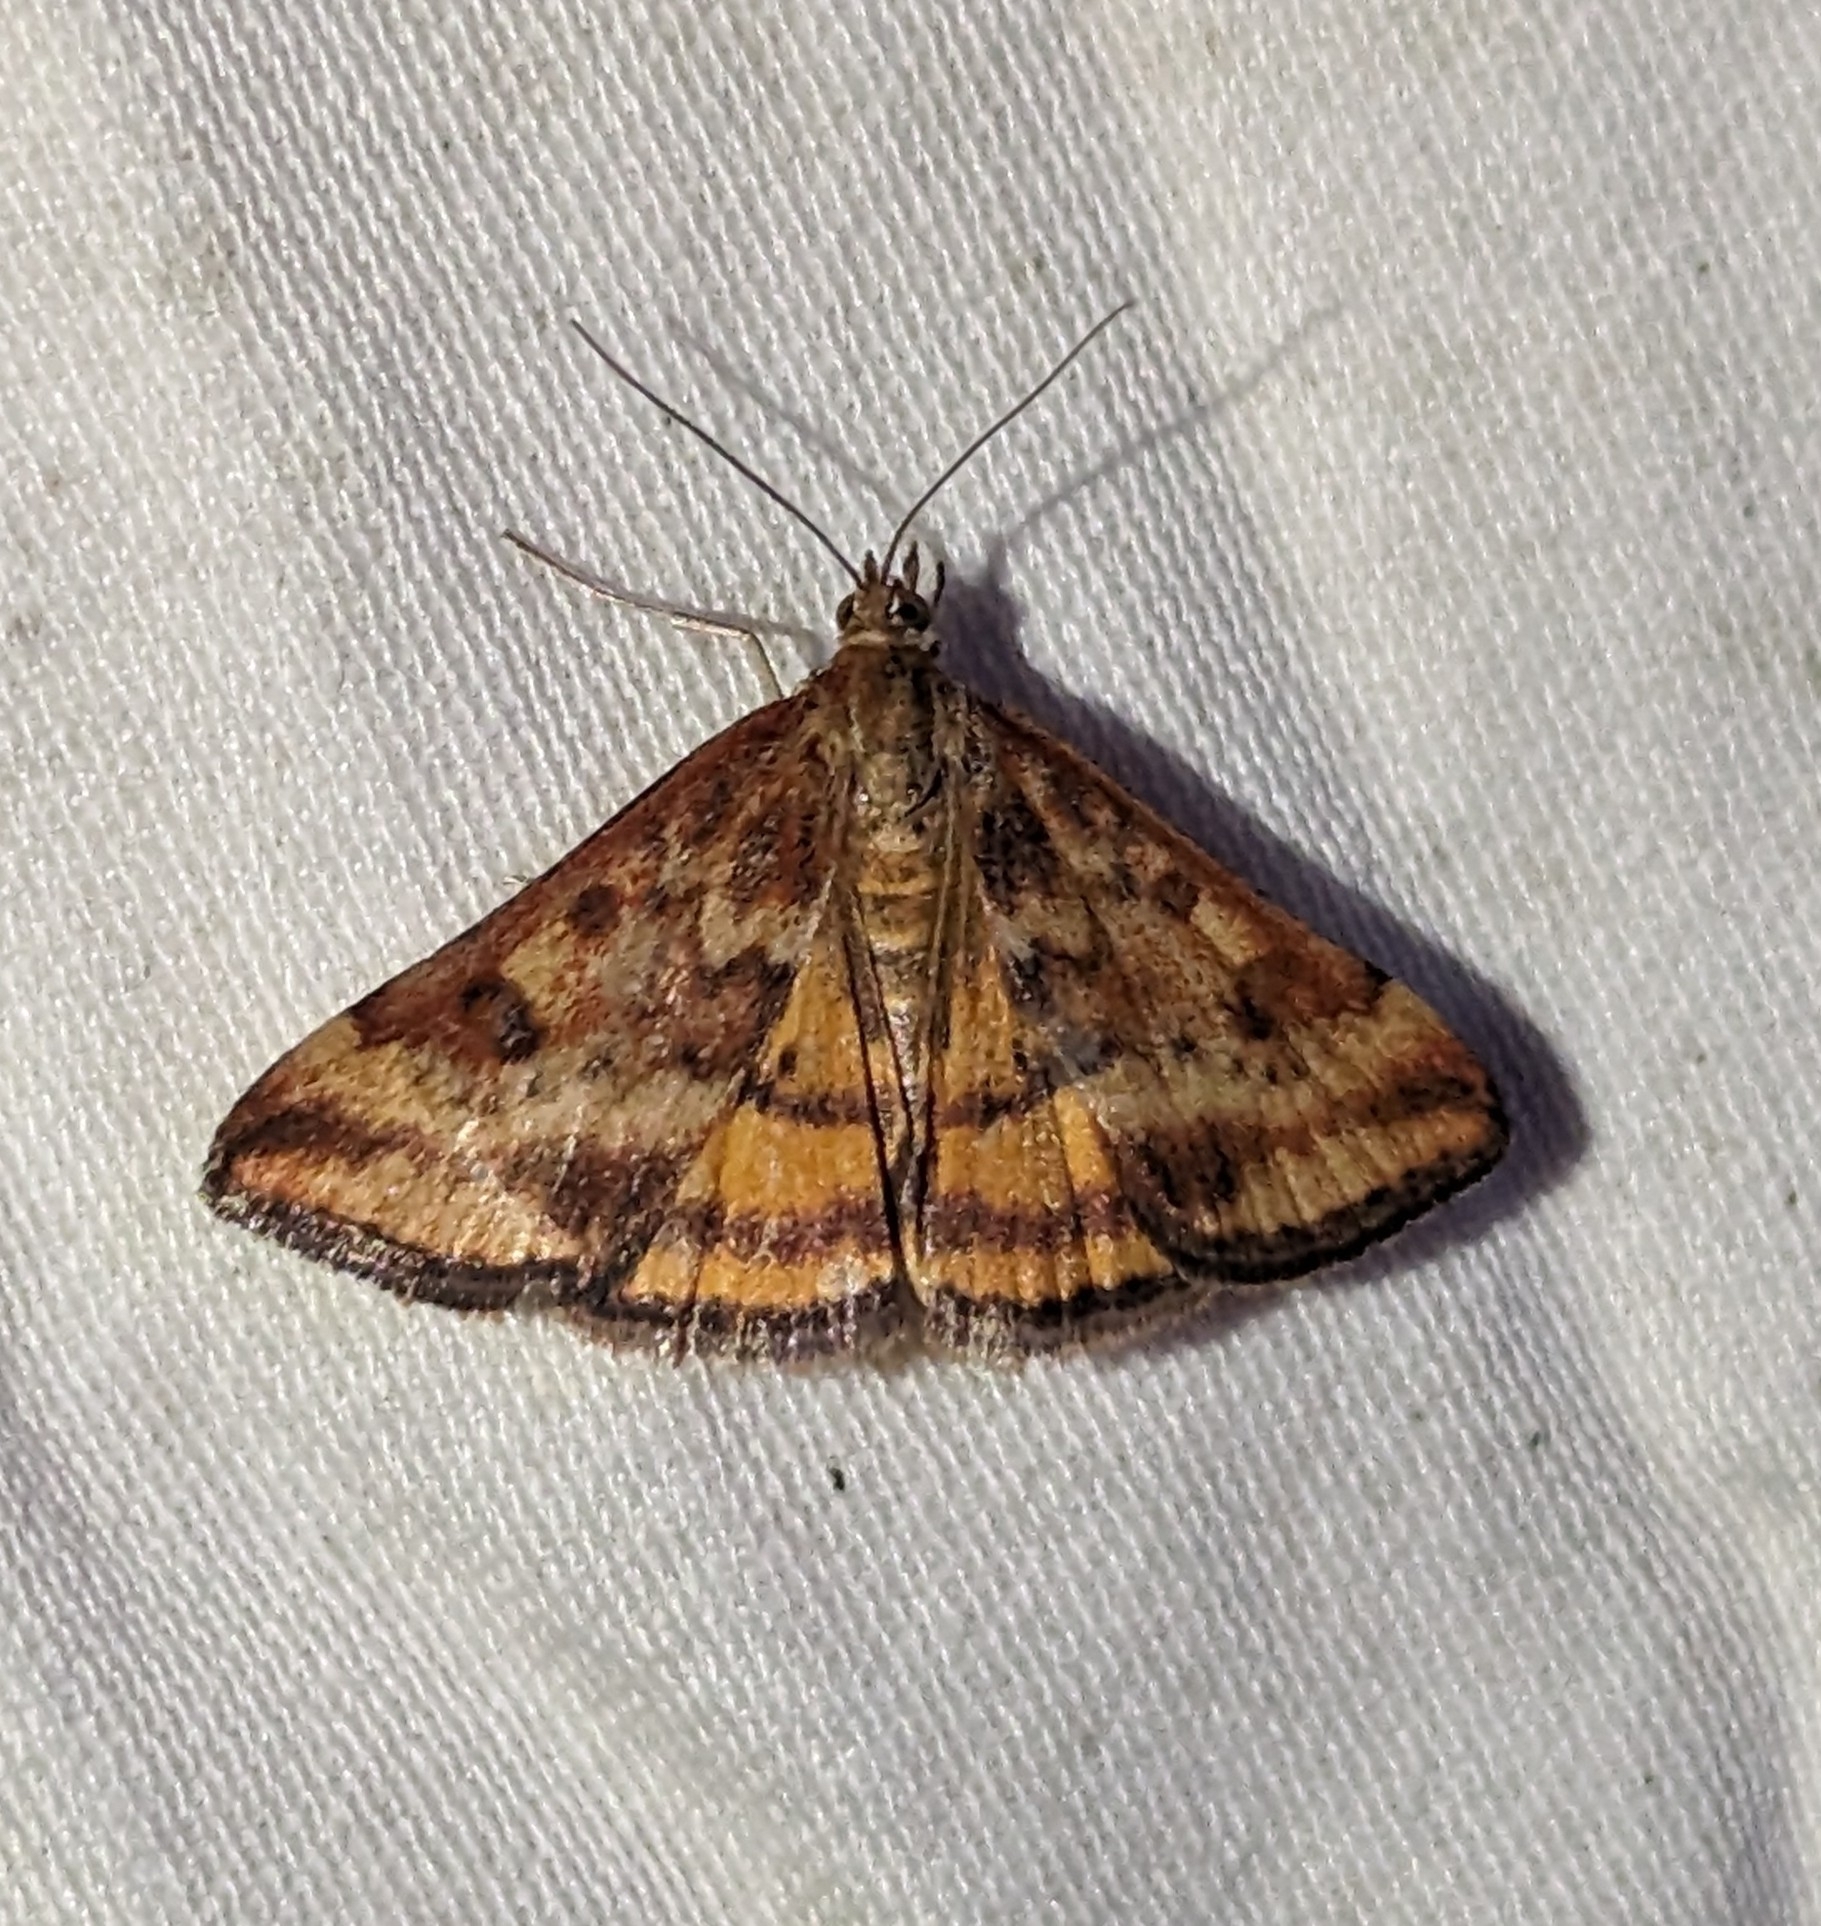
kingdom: Animalia
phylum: Arthropoda
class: Insecta
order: Lepidoptera
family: Crambidae
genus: Pyrausta
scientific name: Pyrausta subsequalis
